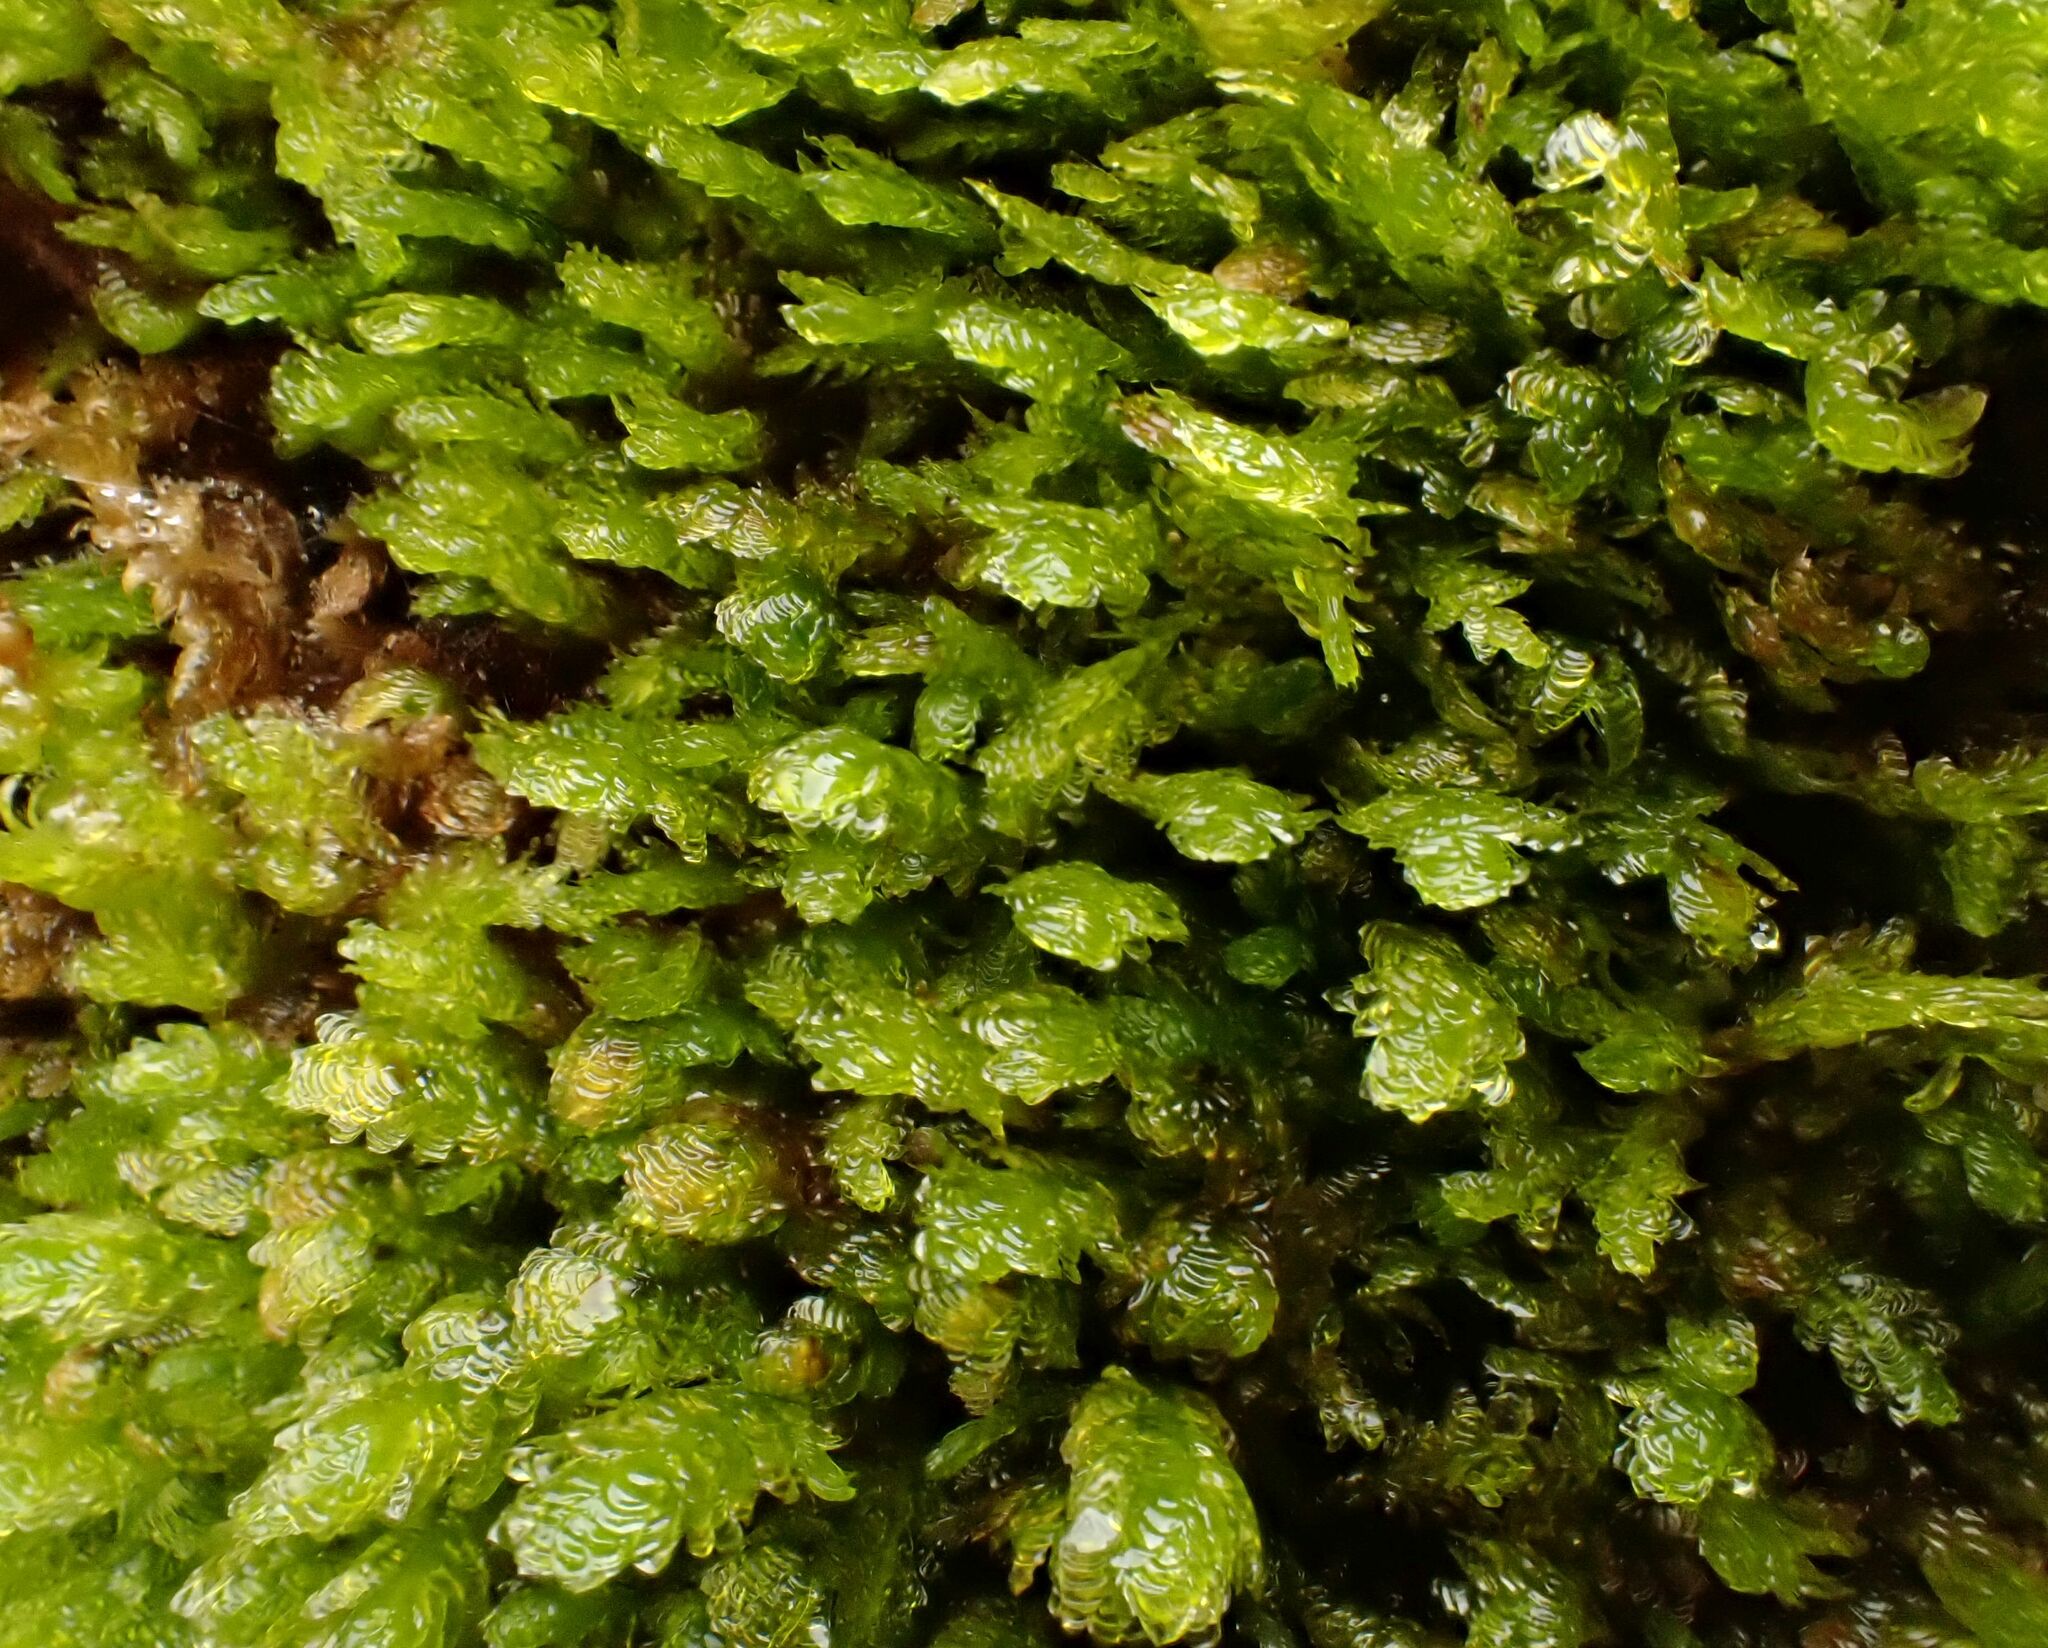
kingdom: Plantae
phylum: Bryophyta
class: Bryopsida
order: Hypnales
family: Neckeraceae
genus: Exsertotheca
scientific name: Exsertotheca crispa
